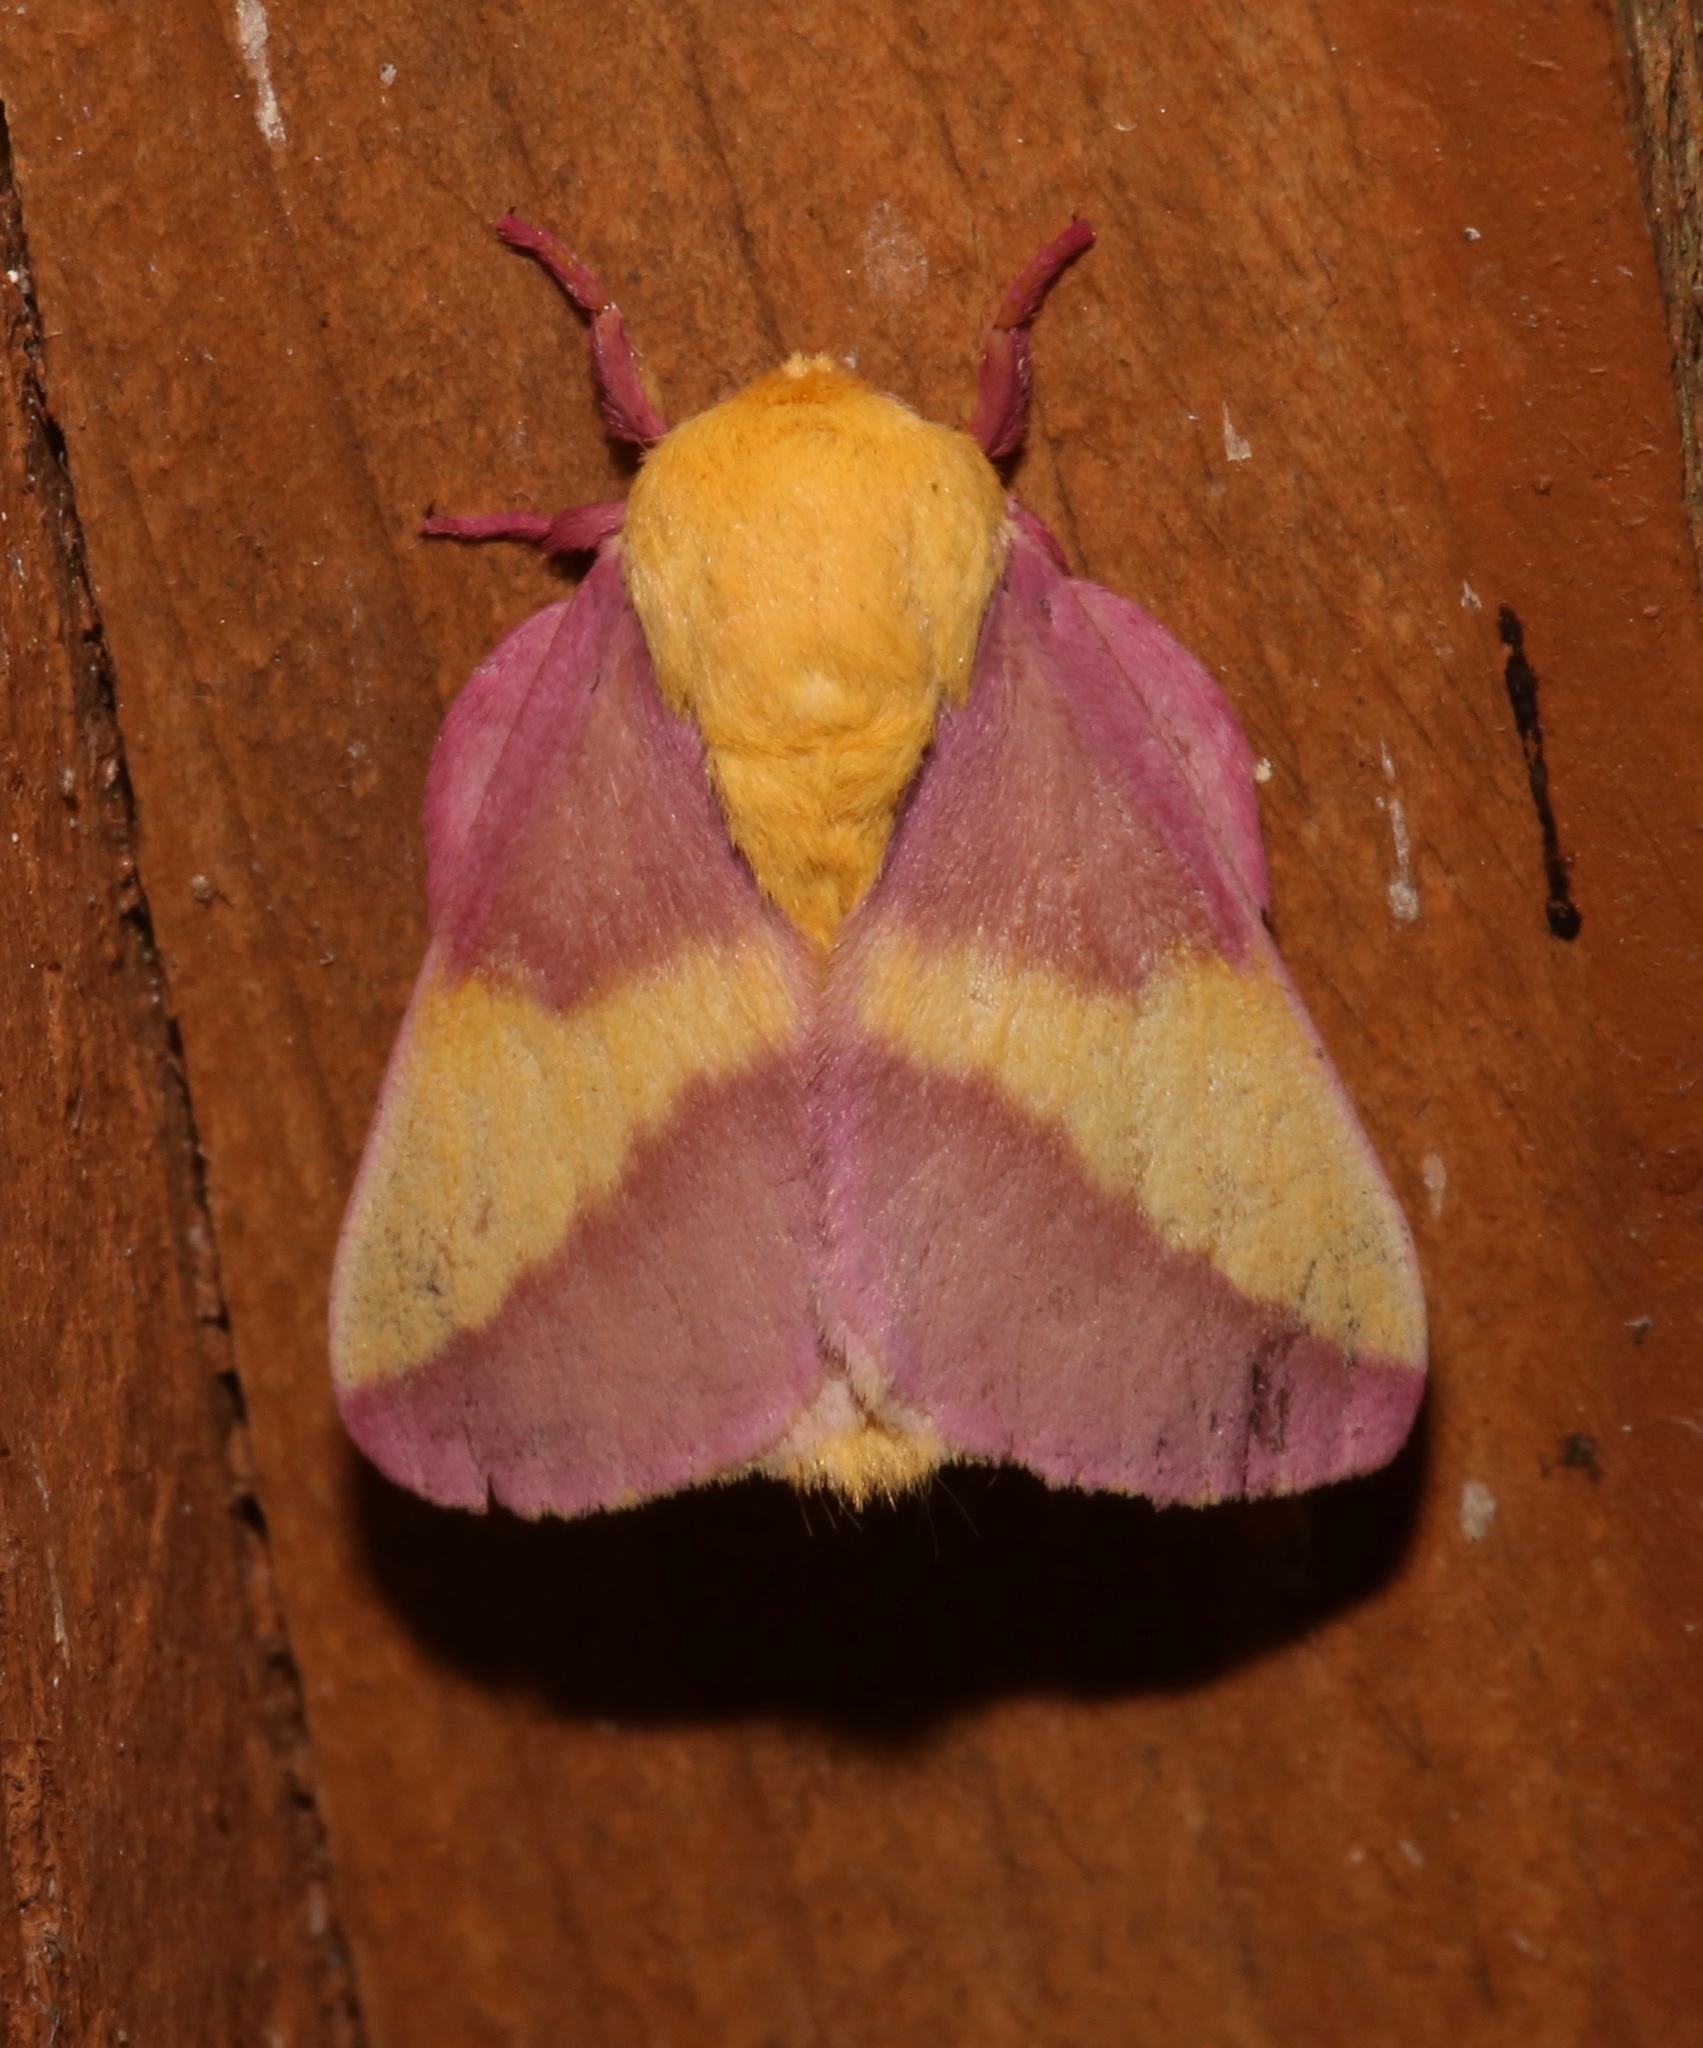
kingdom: Animalia
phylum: Arthropoda
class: Insecta
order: Lepidoptera
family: Saturniidae
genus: Dryocampa
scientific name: Dryocampa rubicunda
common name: Rosy maple moth
